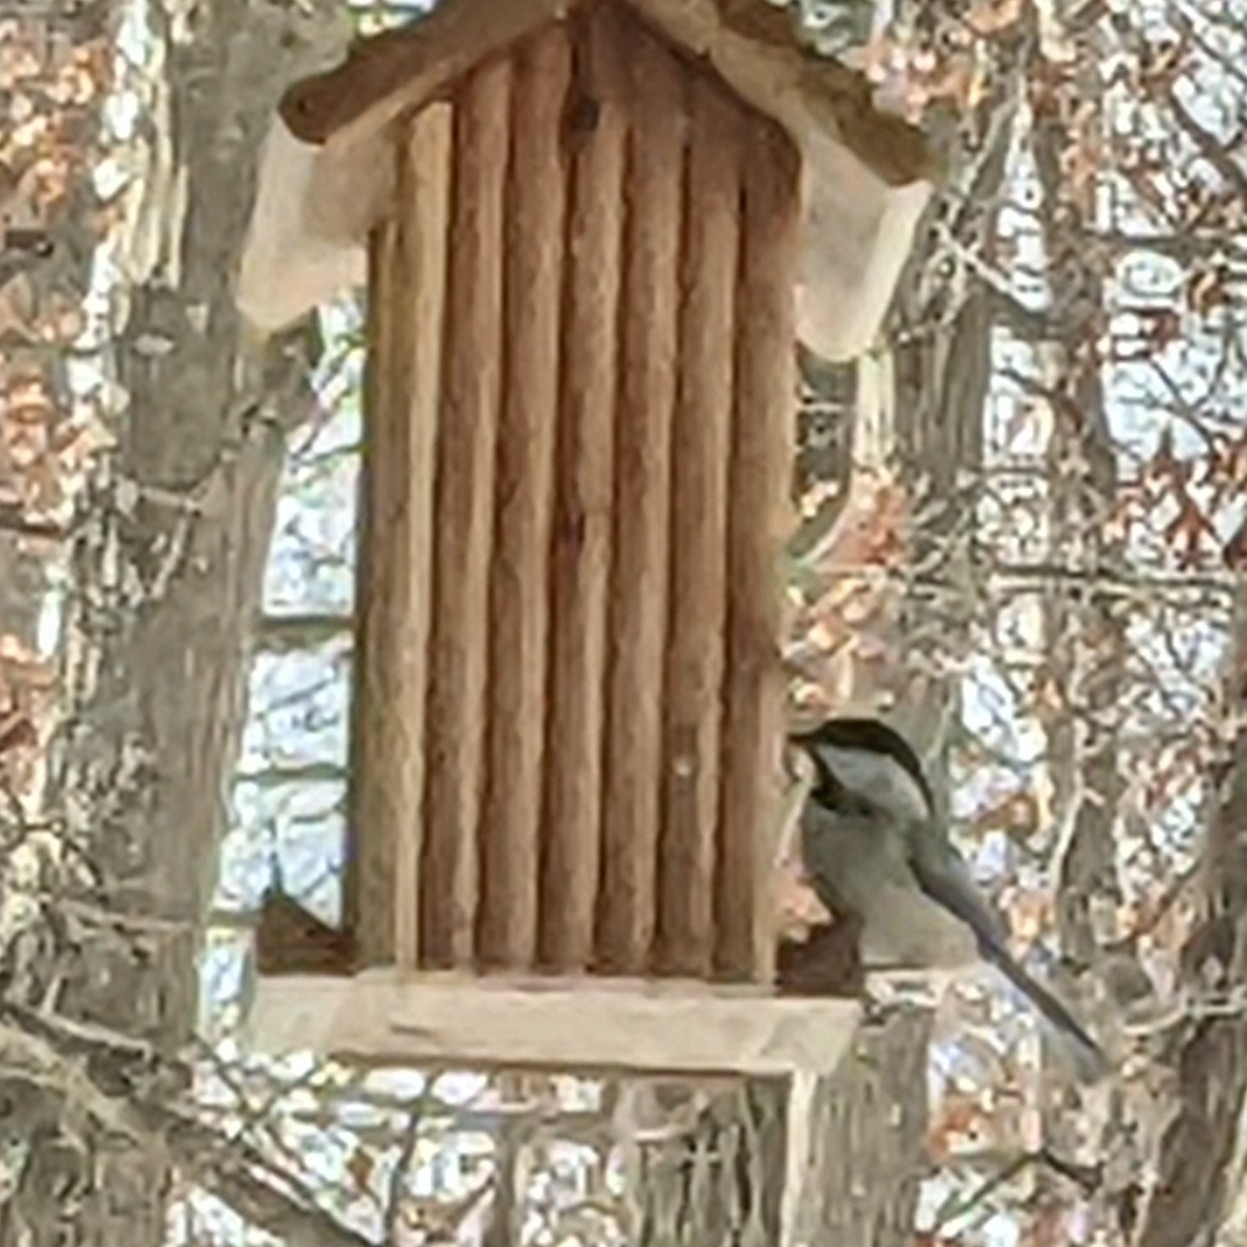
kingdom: Animalia
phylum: Chordata
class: Aves
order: Passeriformes
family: Paridae
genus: Poecile
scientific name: Poecile atricapillus
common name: Black-capped chickadee
